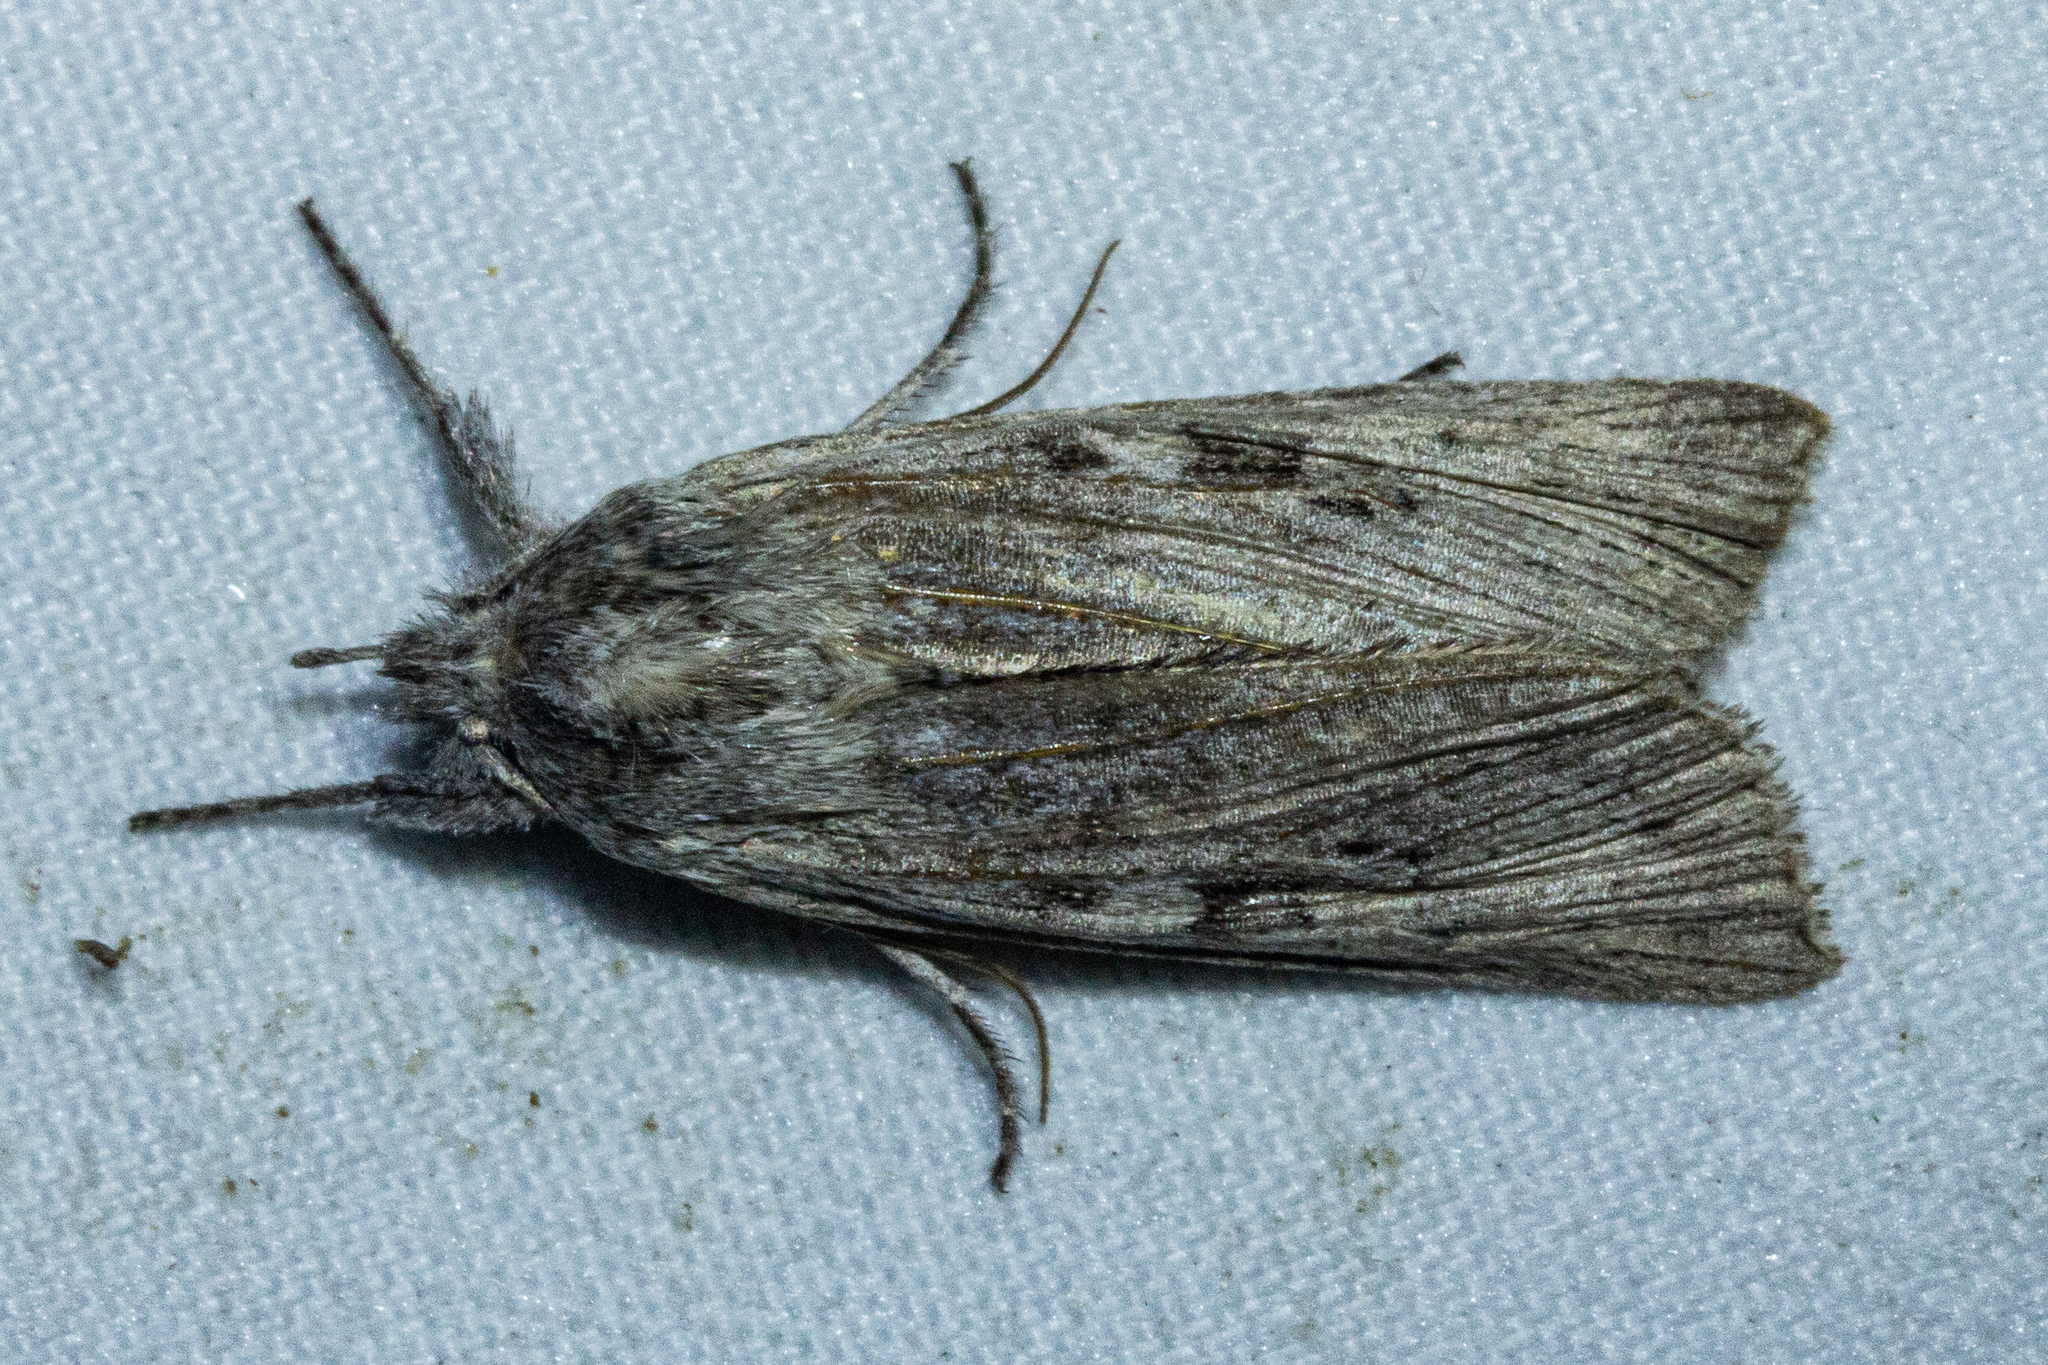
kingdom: Animalia
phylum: Arthropoda
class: Insecta
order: Lepidoptera
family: Noctuidae
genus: Physetica
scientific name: Physetica phricias
